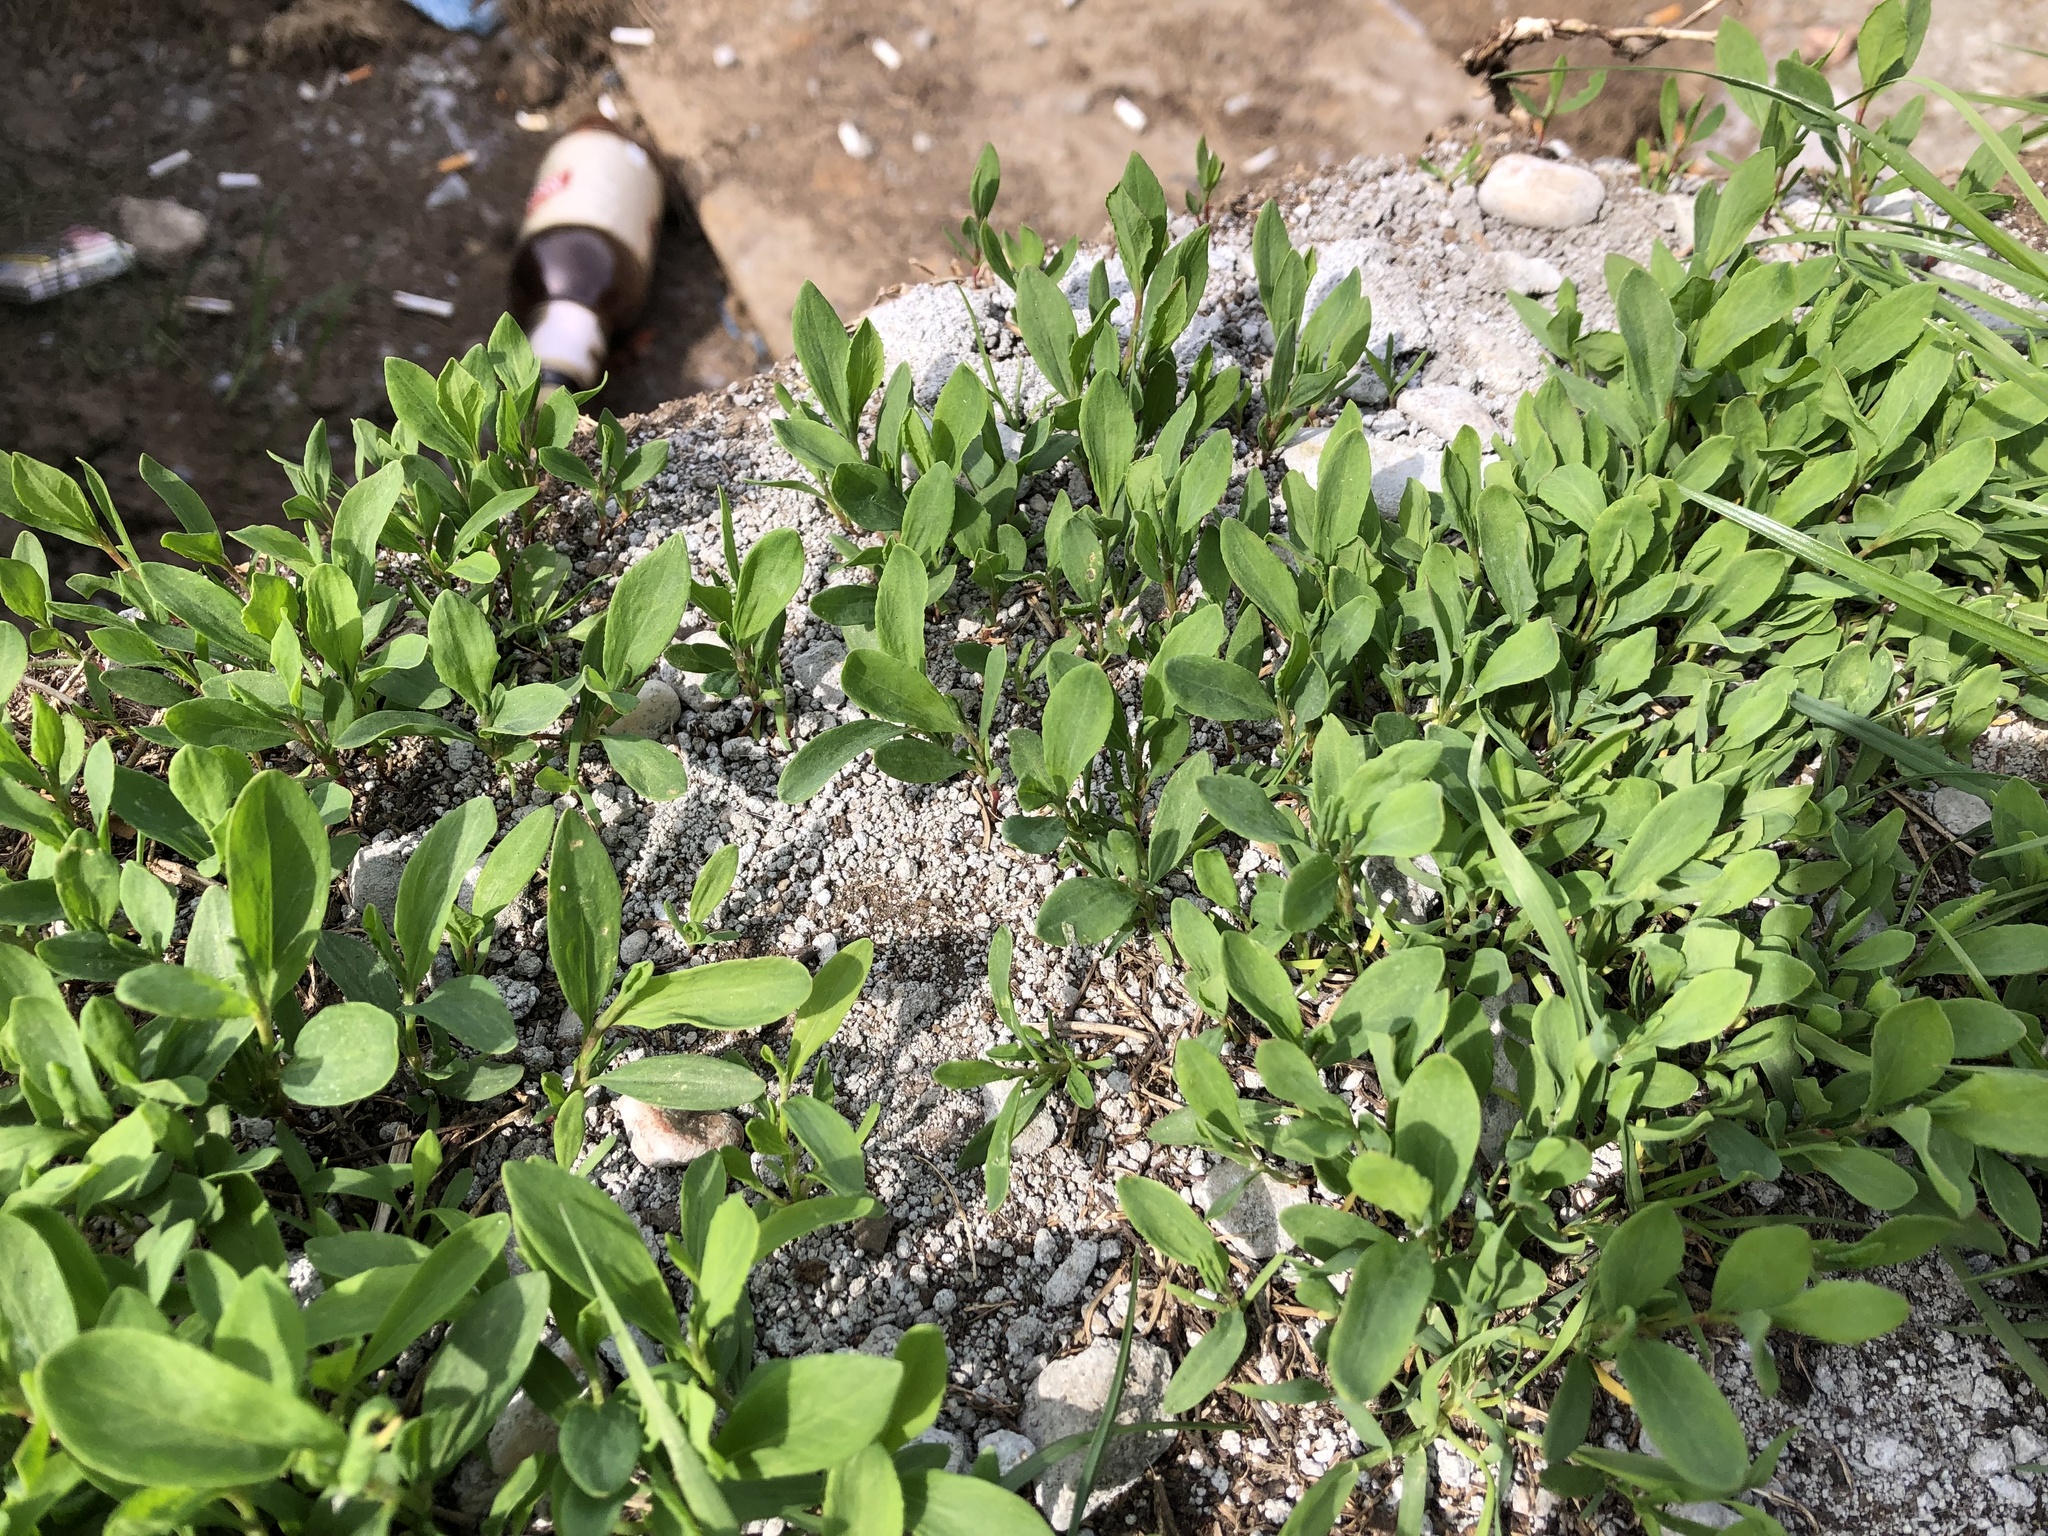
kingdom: Plantae
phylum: Tracheophyta
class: Magnoliopsida
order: Caryophyllales
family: Polygonaceae
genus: Polygonum
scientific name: Polygonum
